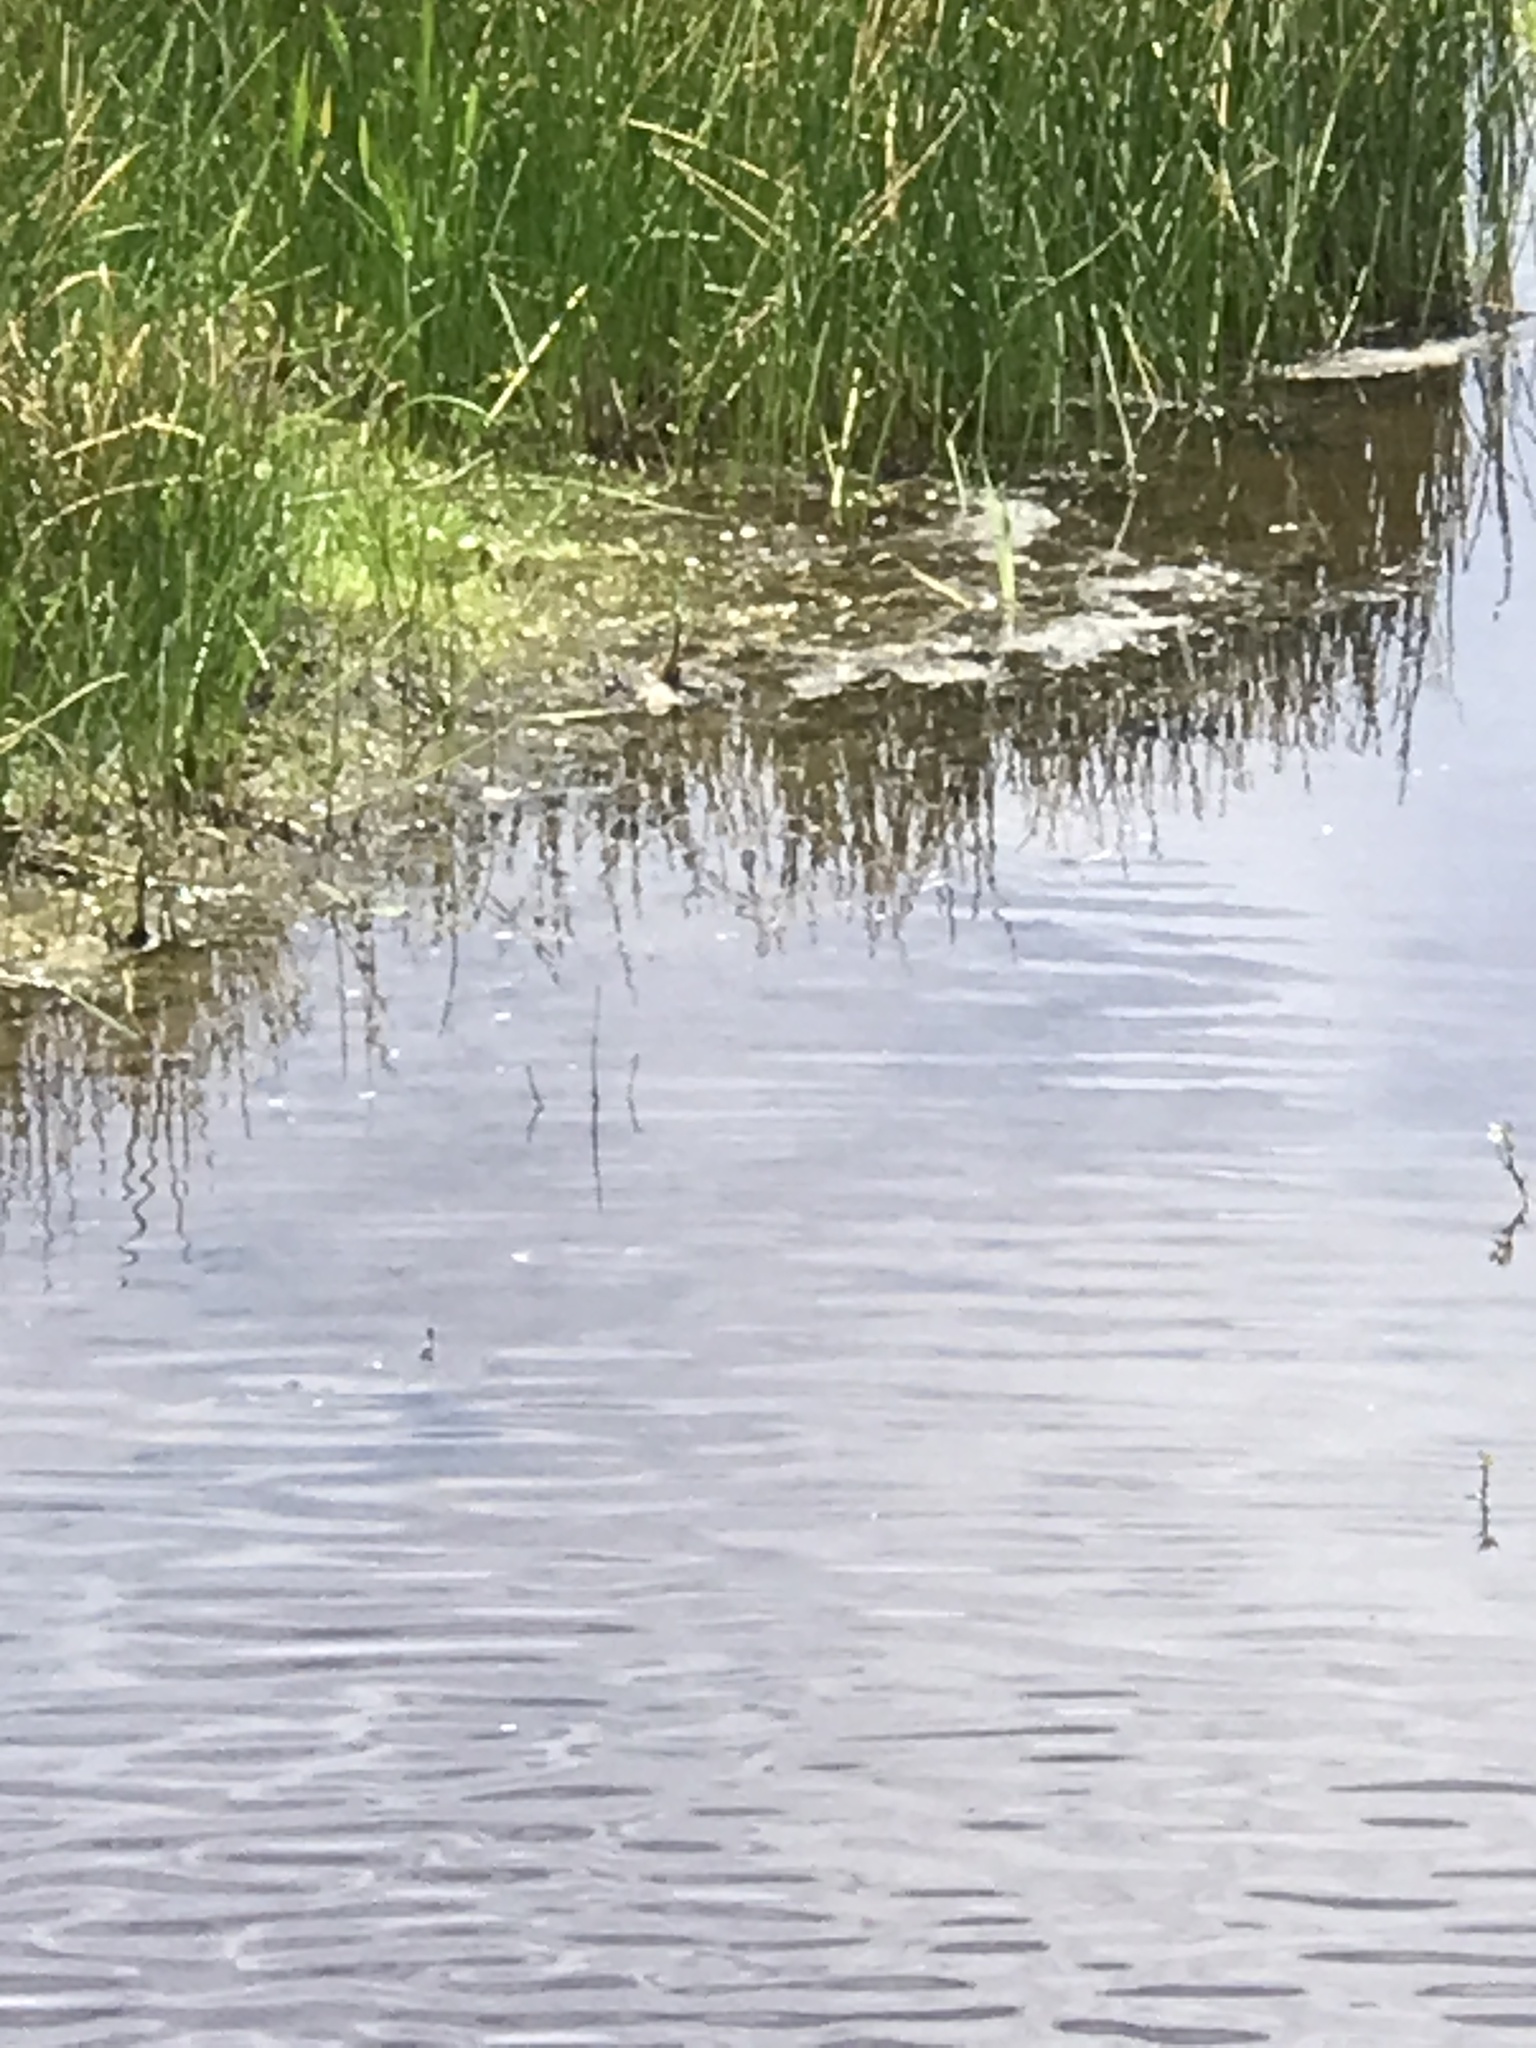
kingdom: Animalia
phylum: Chordata
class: Aves
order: Passeriformes
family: Icteridae
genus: Xanthocephalus
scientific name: Xanthocephalus xanthocephalus
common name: Yellow-headed blackbird
